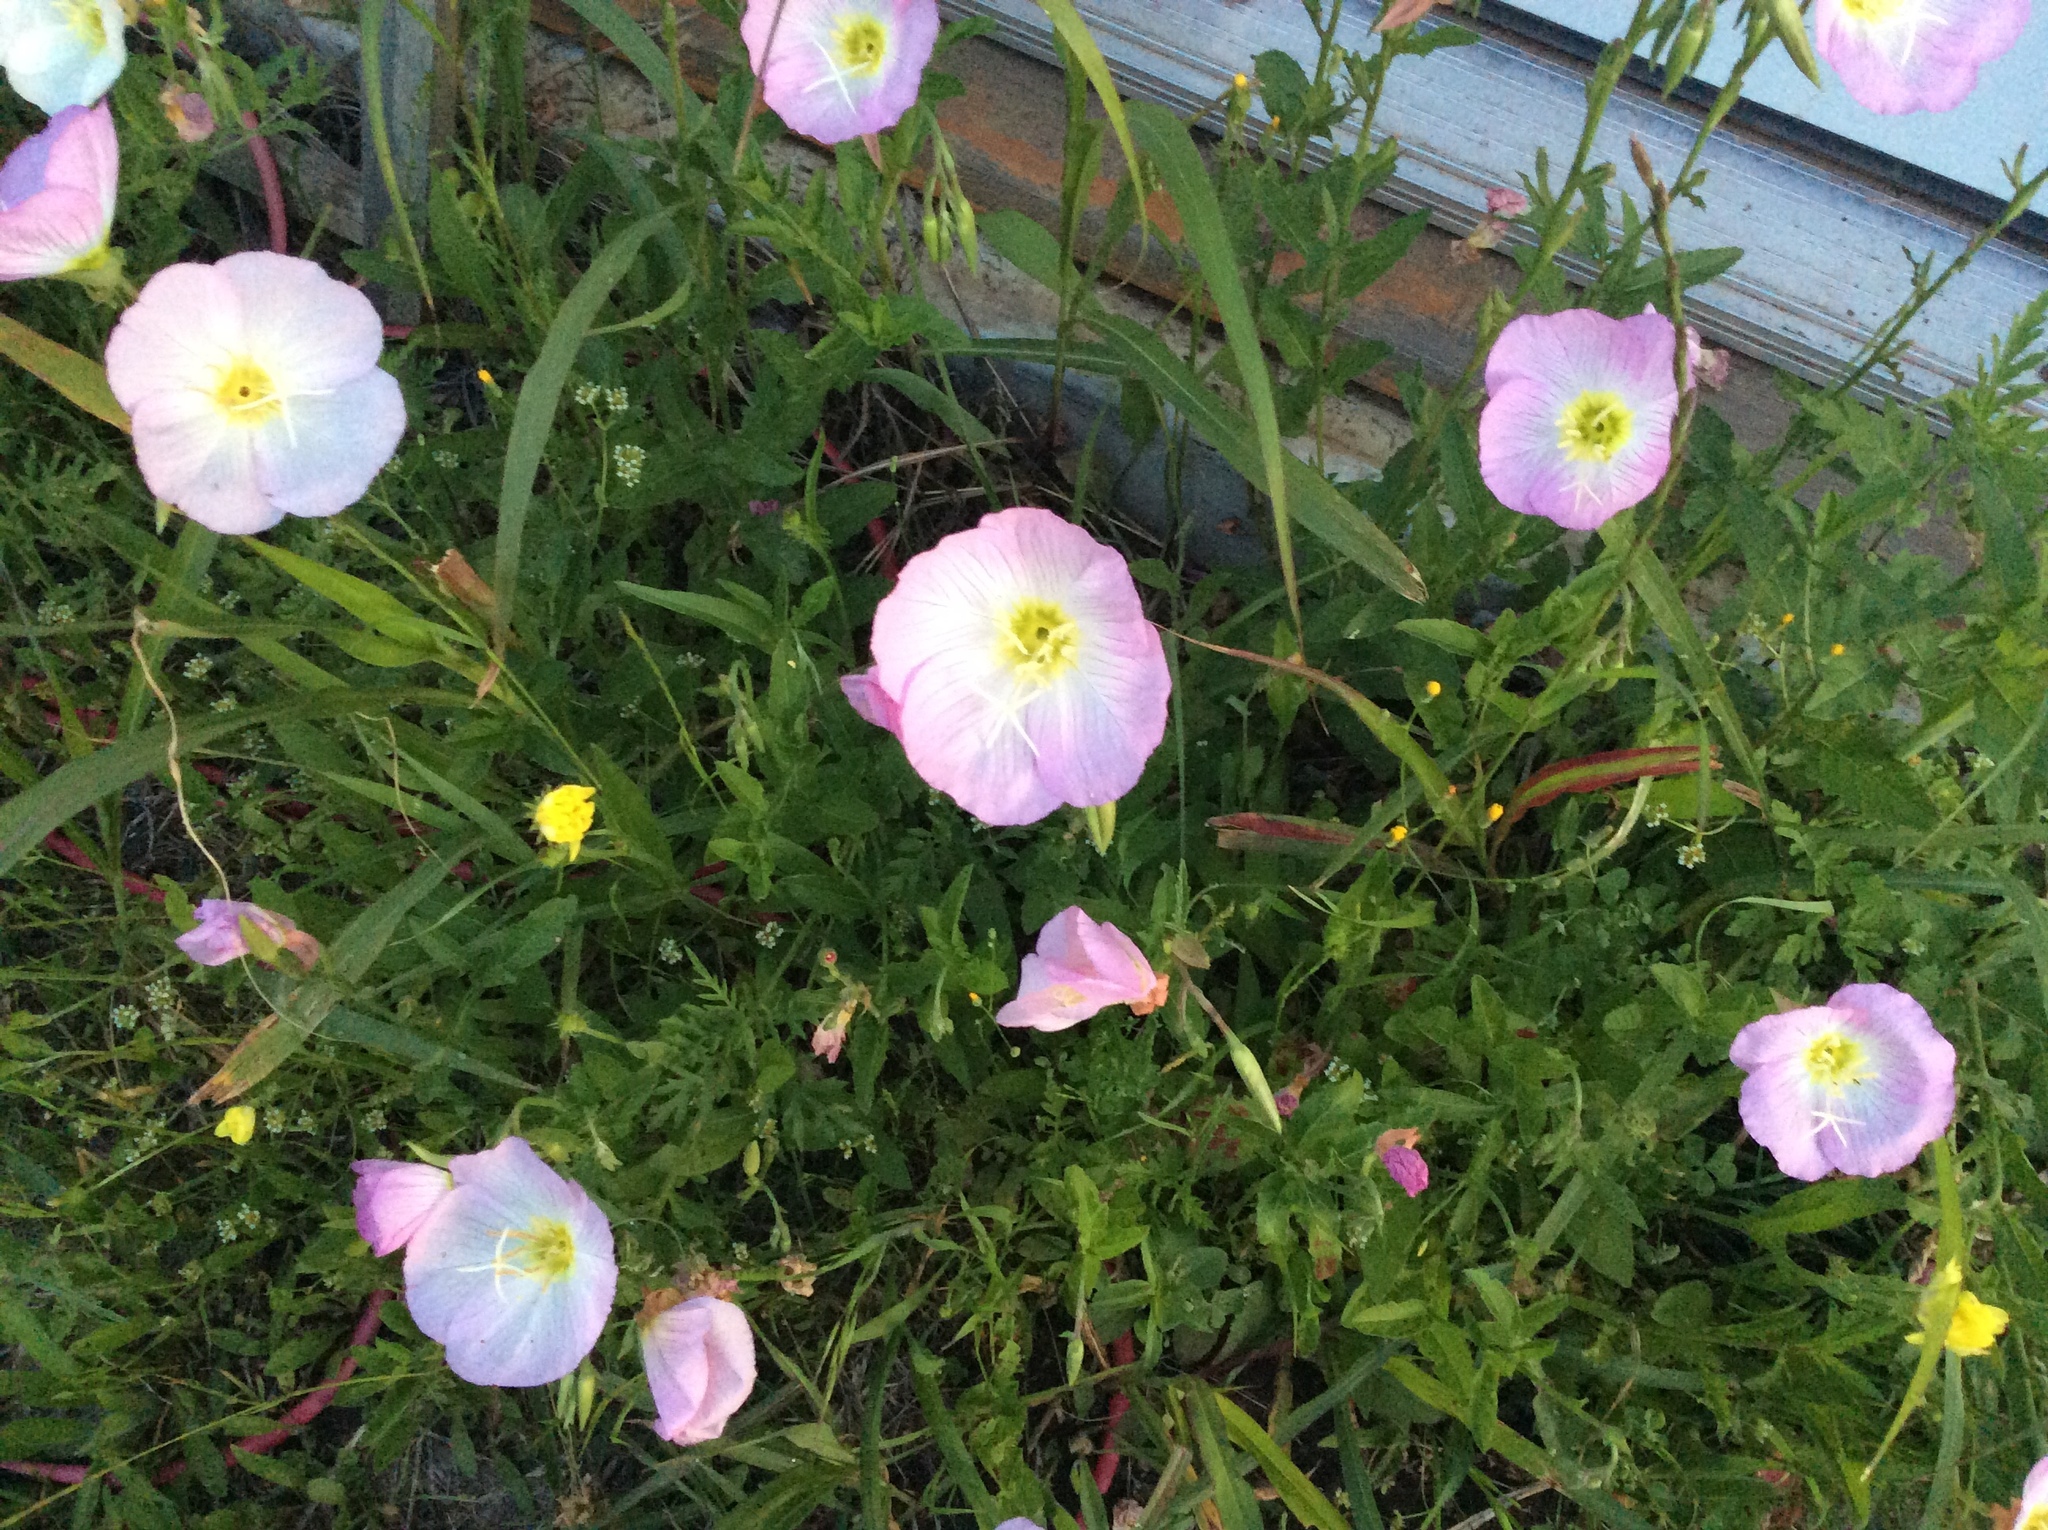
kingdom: Plantae
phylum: Tracheophyta
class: Magnoliopsida
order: Myrtales
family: Onagraceae
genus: Oenothera
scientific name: Oenothera speciosa
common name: White evening-primrose
